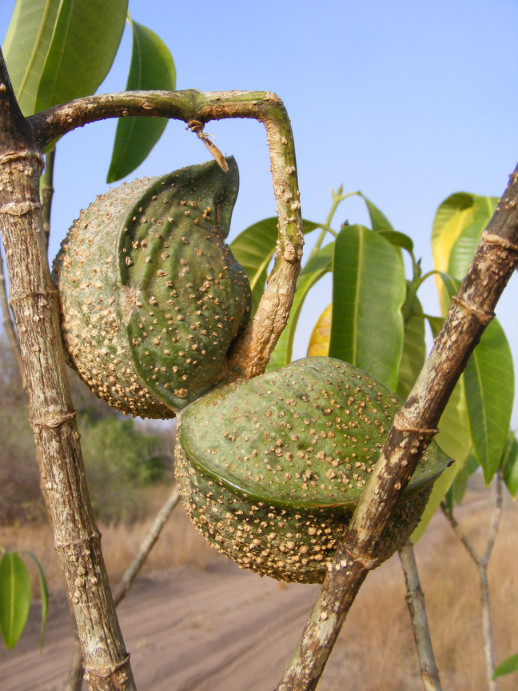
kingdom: Plantae
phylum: Tracheophyta
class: Magnoliopsida
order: Gentianales
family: Apocynaceae
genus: Tabernaemontana
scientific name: Tabernaemontana elegans
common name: Toadtree
